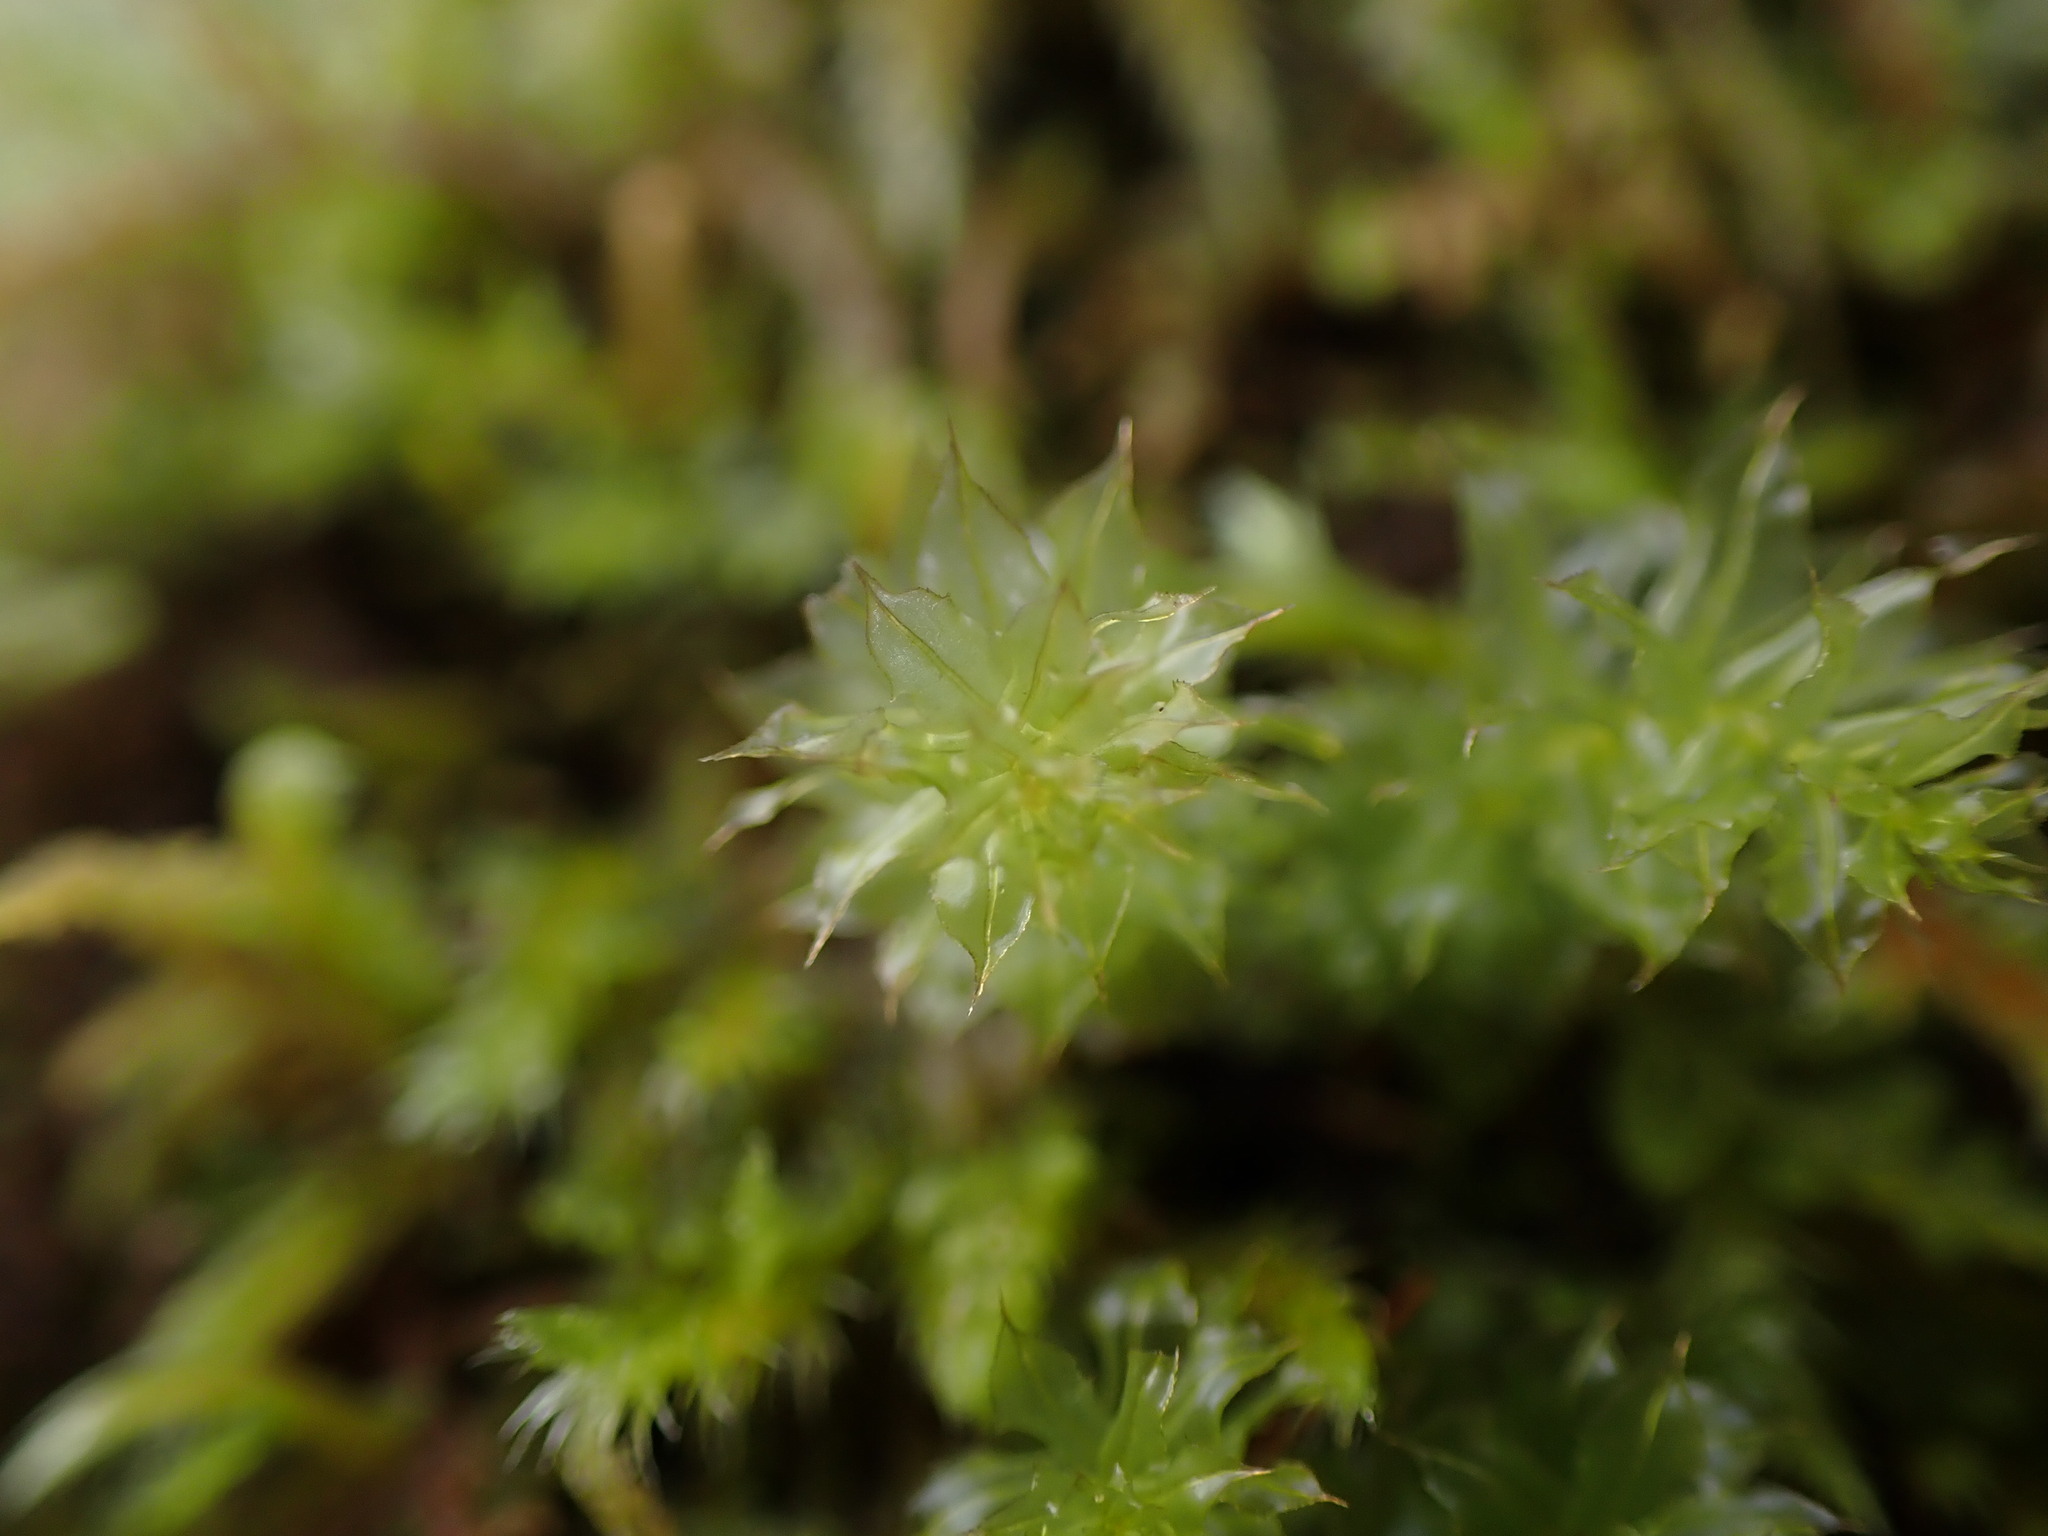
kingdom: Plantae
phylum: Bryophyta
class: Bryopsida
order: Bryales
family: Mniaceae
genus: Plagiomnium
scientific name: Plagiomnium venustum
